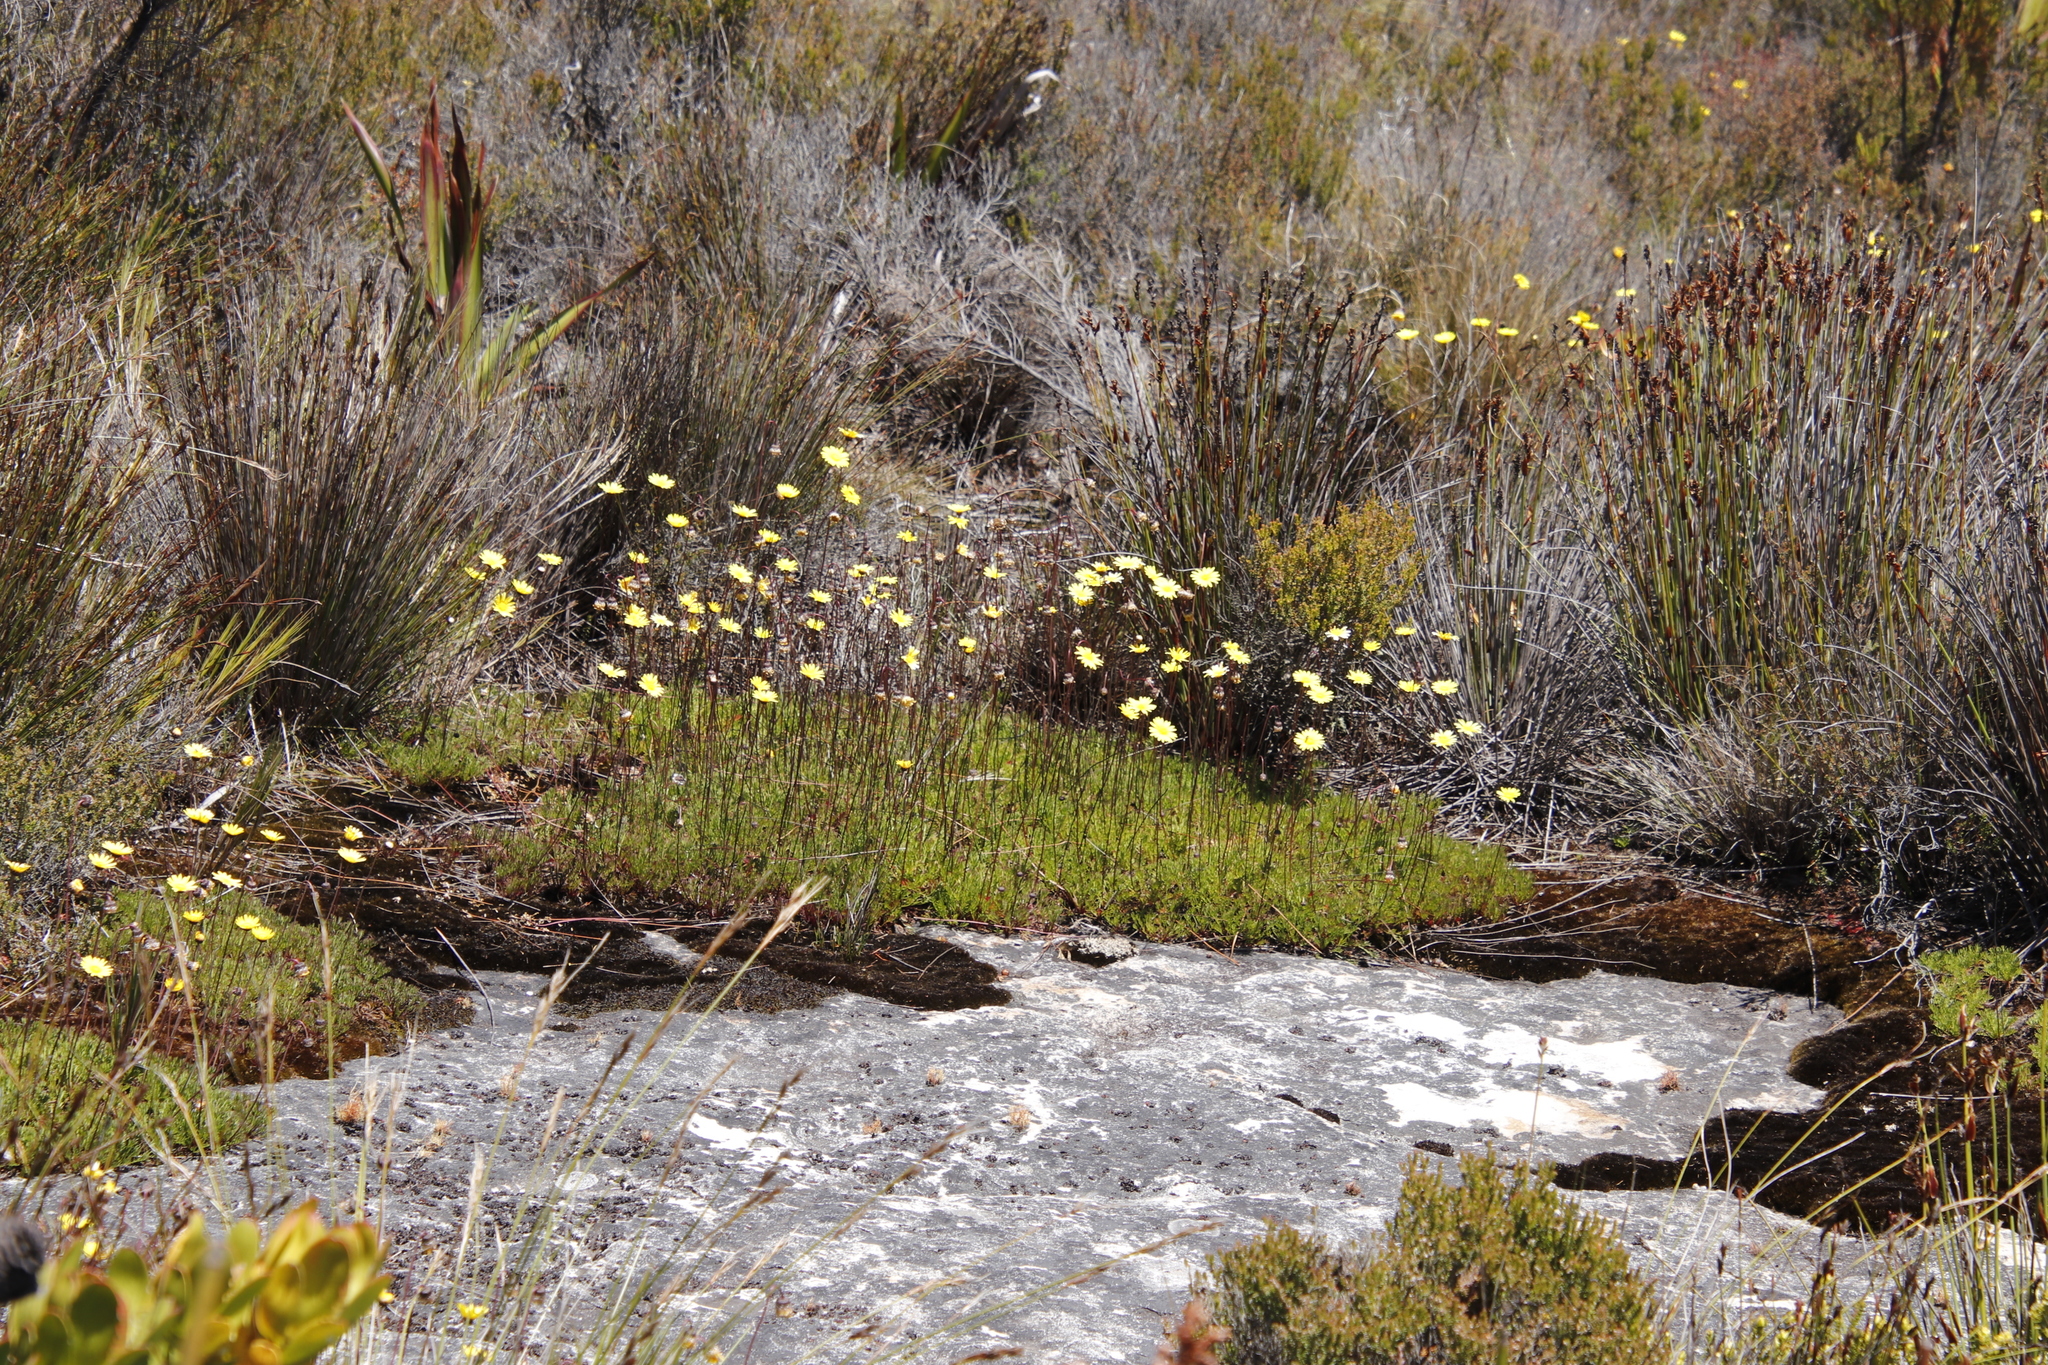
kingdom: Plantae
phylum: Tracheophyta
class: Magnoliopsida
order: Asterales
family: Asteraceae
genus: Ursinia
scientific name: Ursinia nudicaulis
